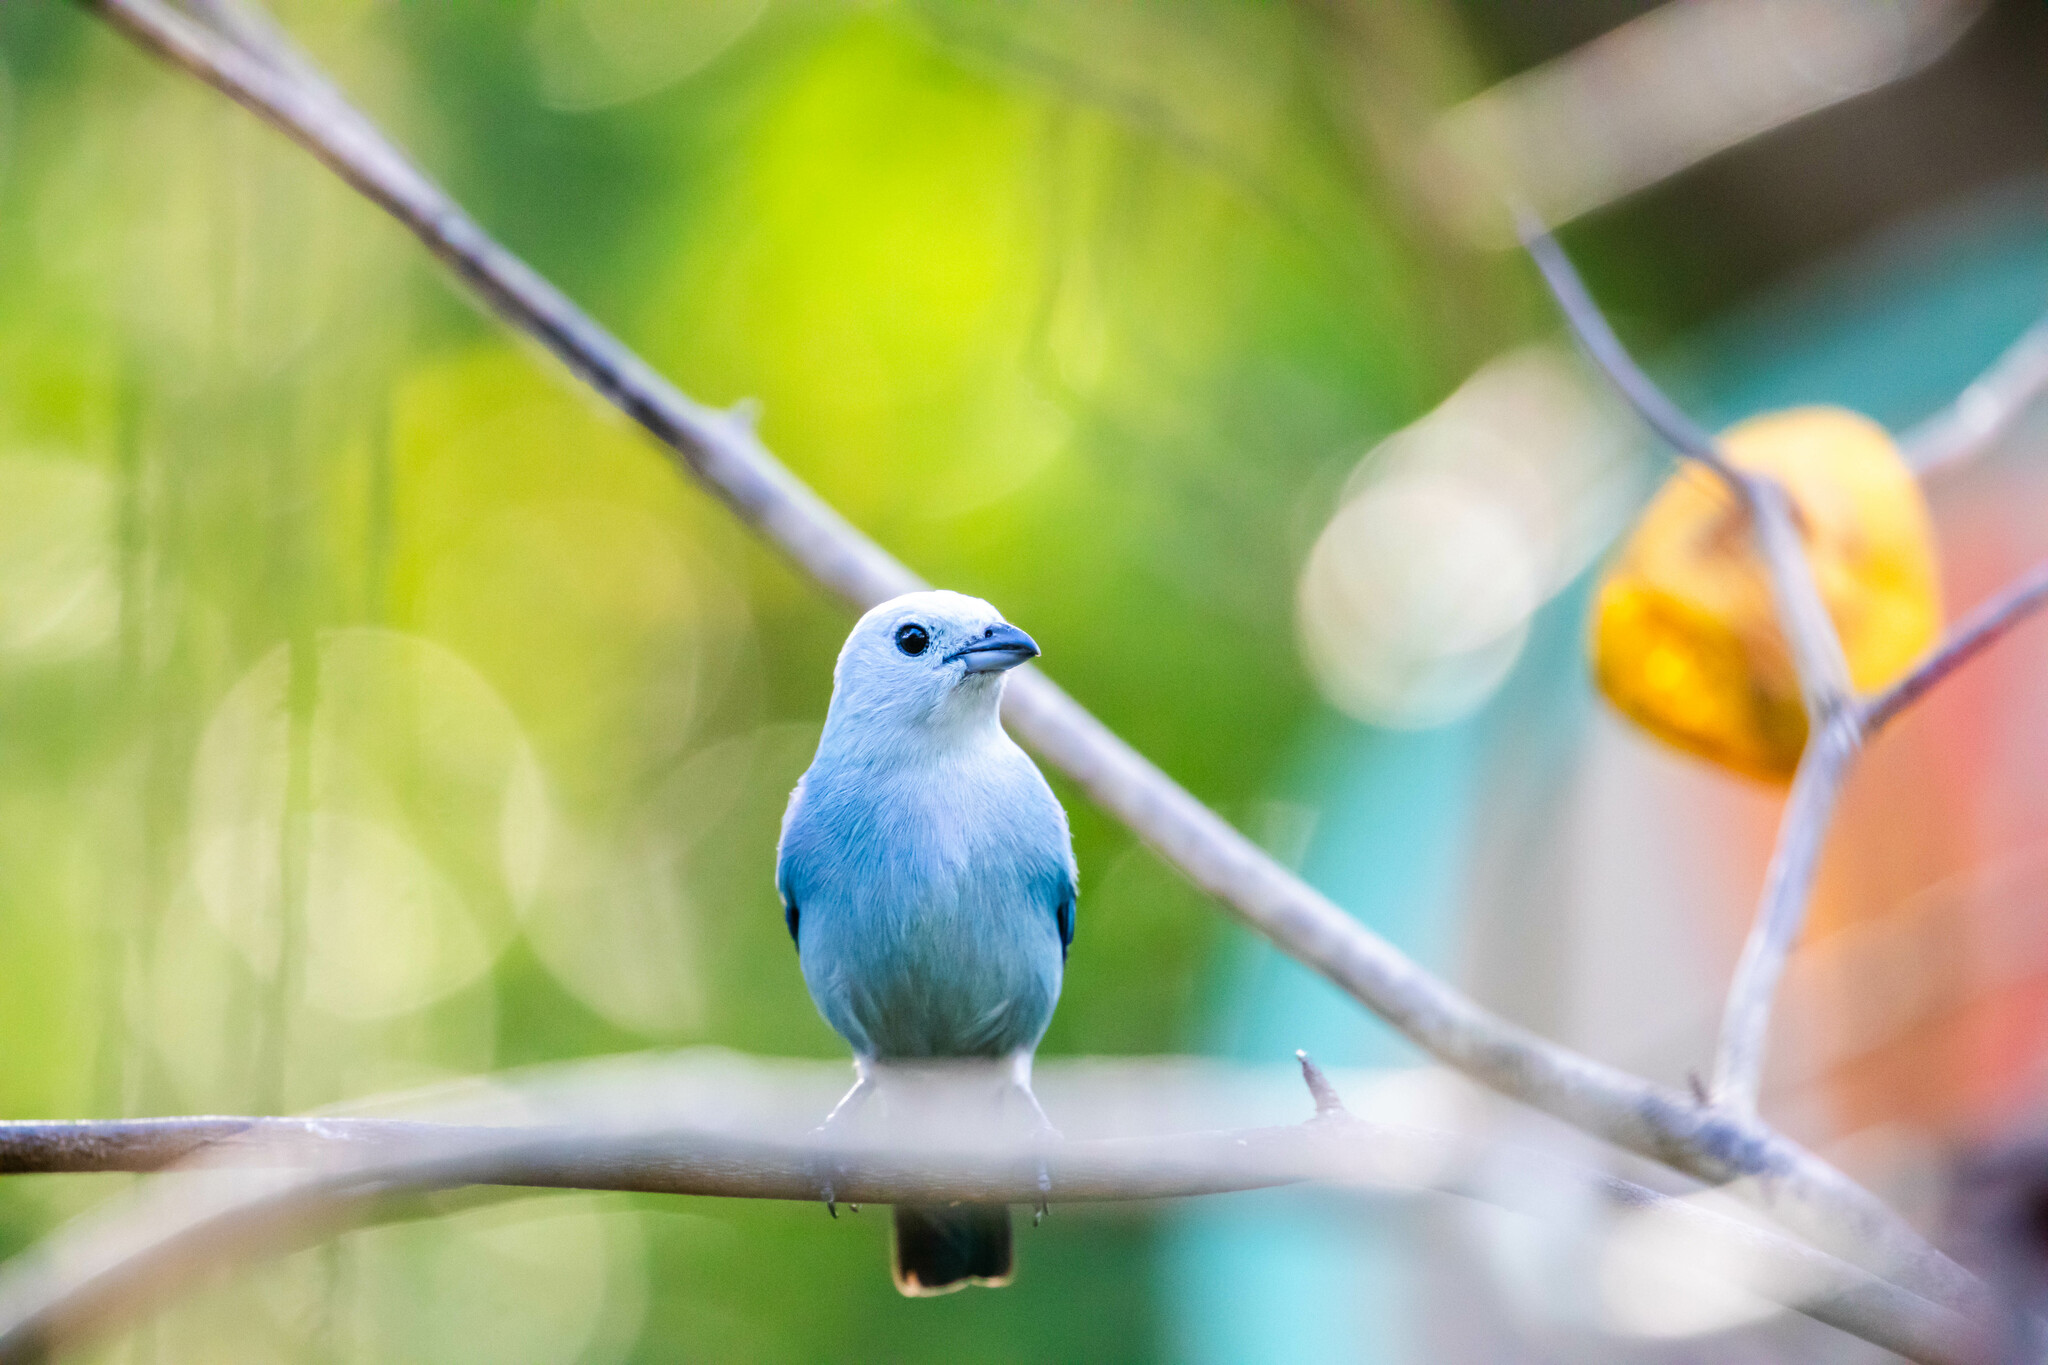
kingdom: Animalia
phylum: Chordata
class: Aves
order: Passeriformes
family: Thraupidae
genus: Thraupis
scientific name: Thraupis episcopus
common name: Blue-grey tanager
